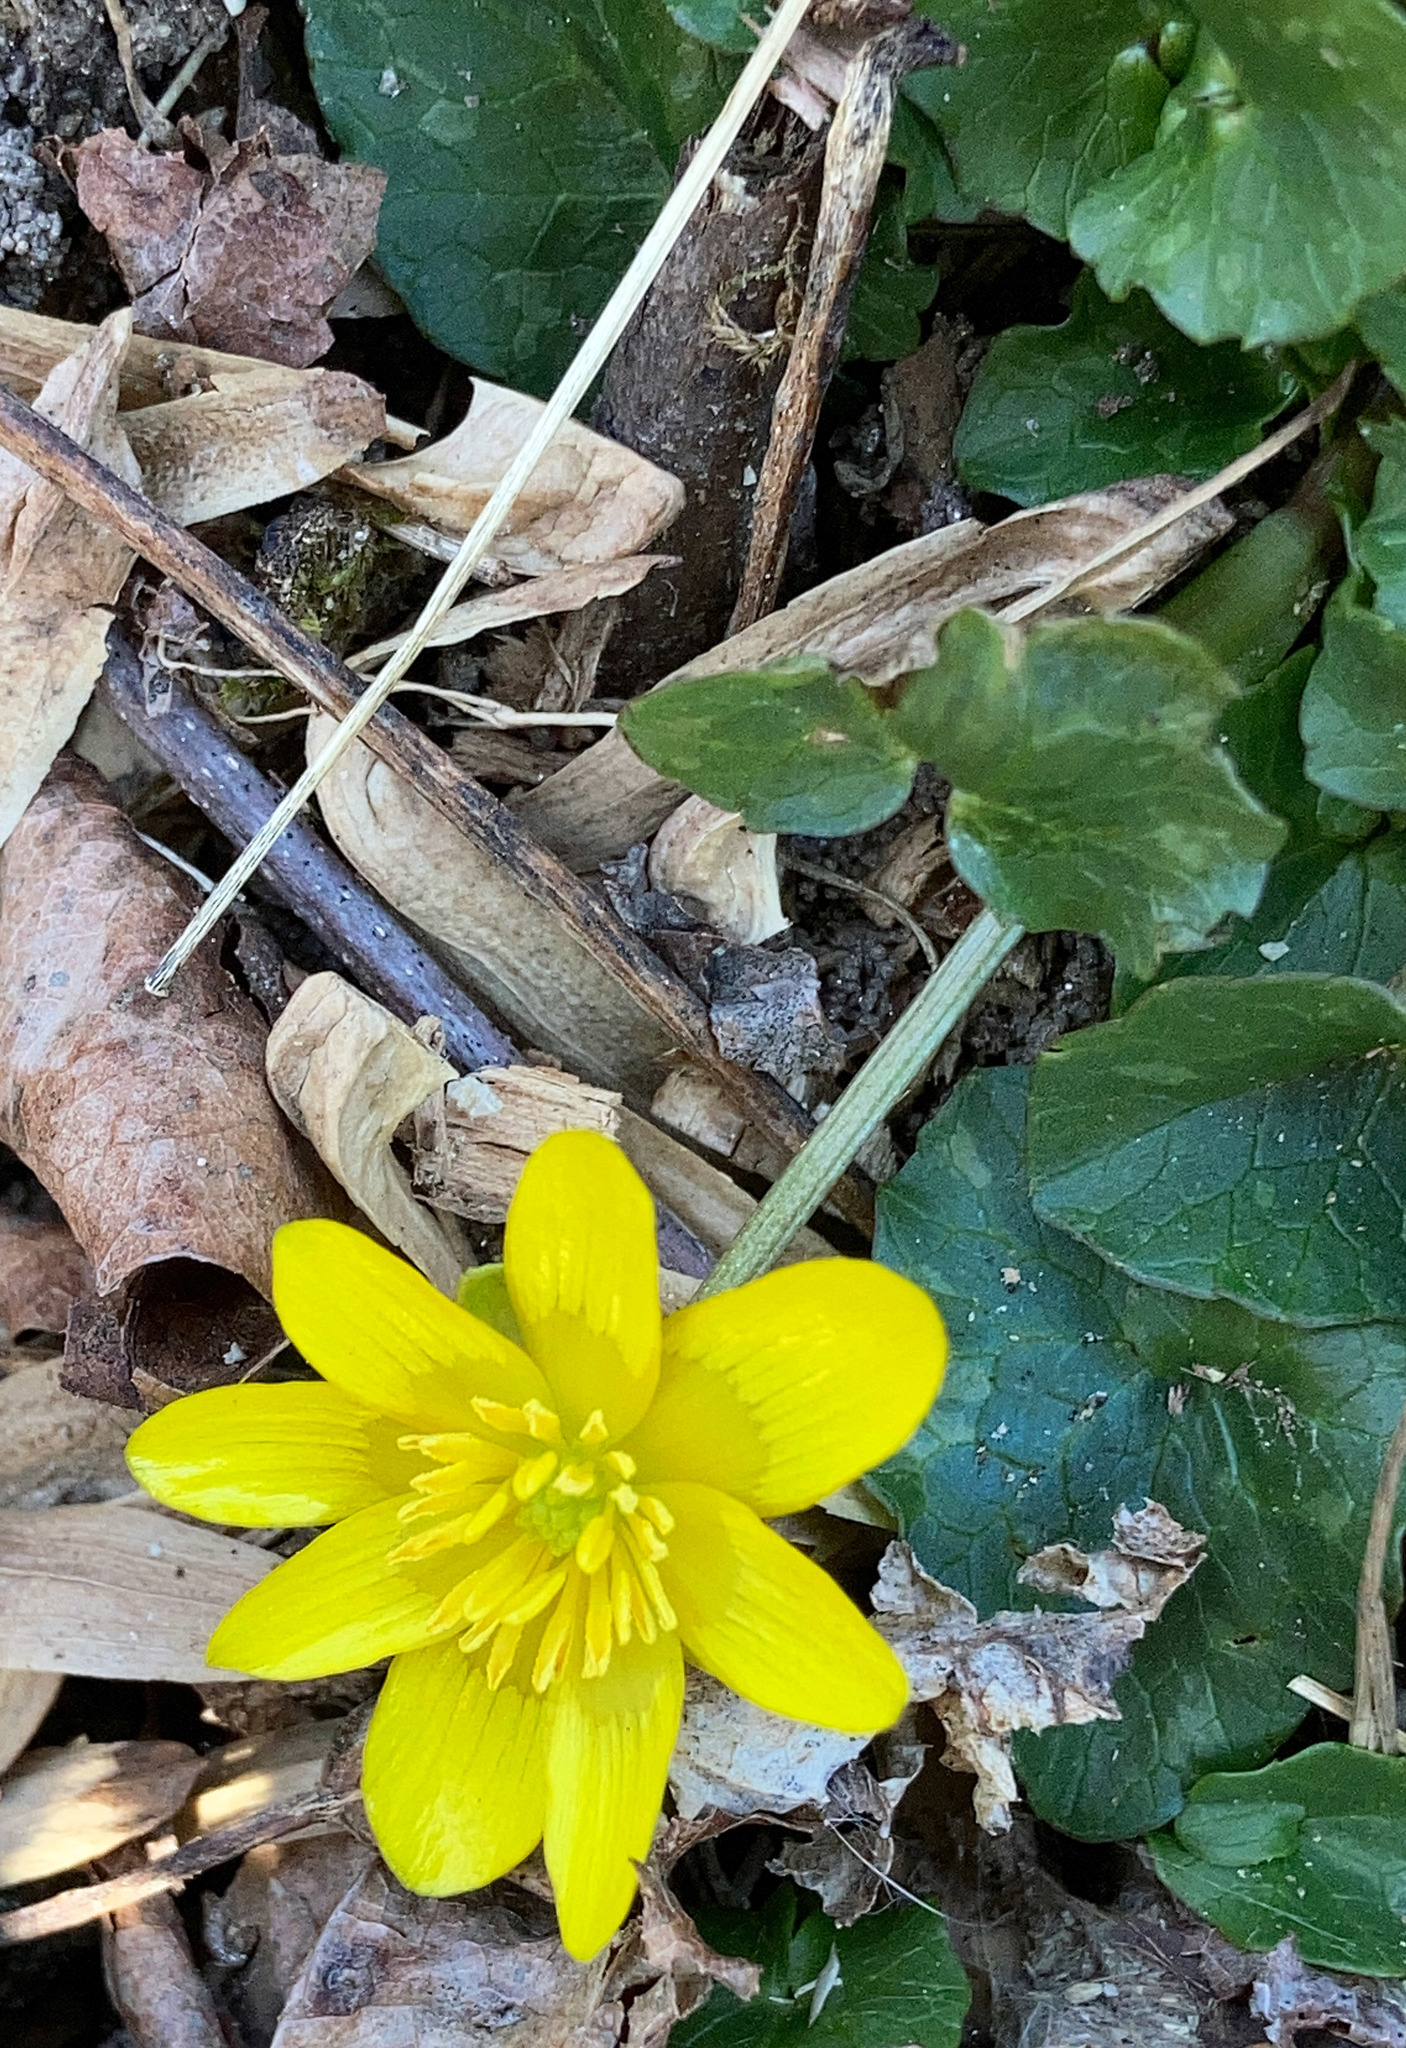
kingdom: Plantae
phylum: Tracheophyta
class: Magnoliopsida
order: Ranunculales
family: Ranunculaceae
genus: Ficaria
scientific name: Ficaria verna
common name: Lesser celandine
